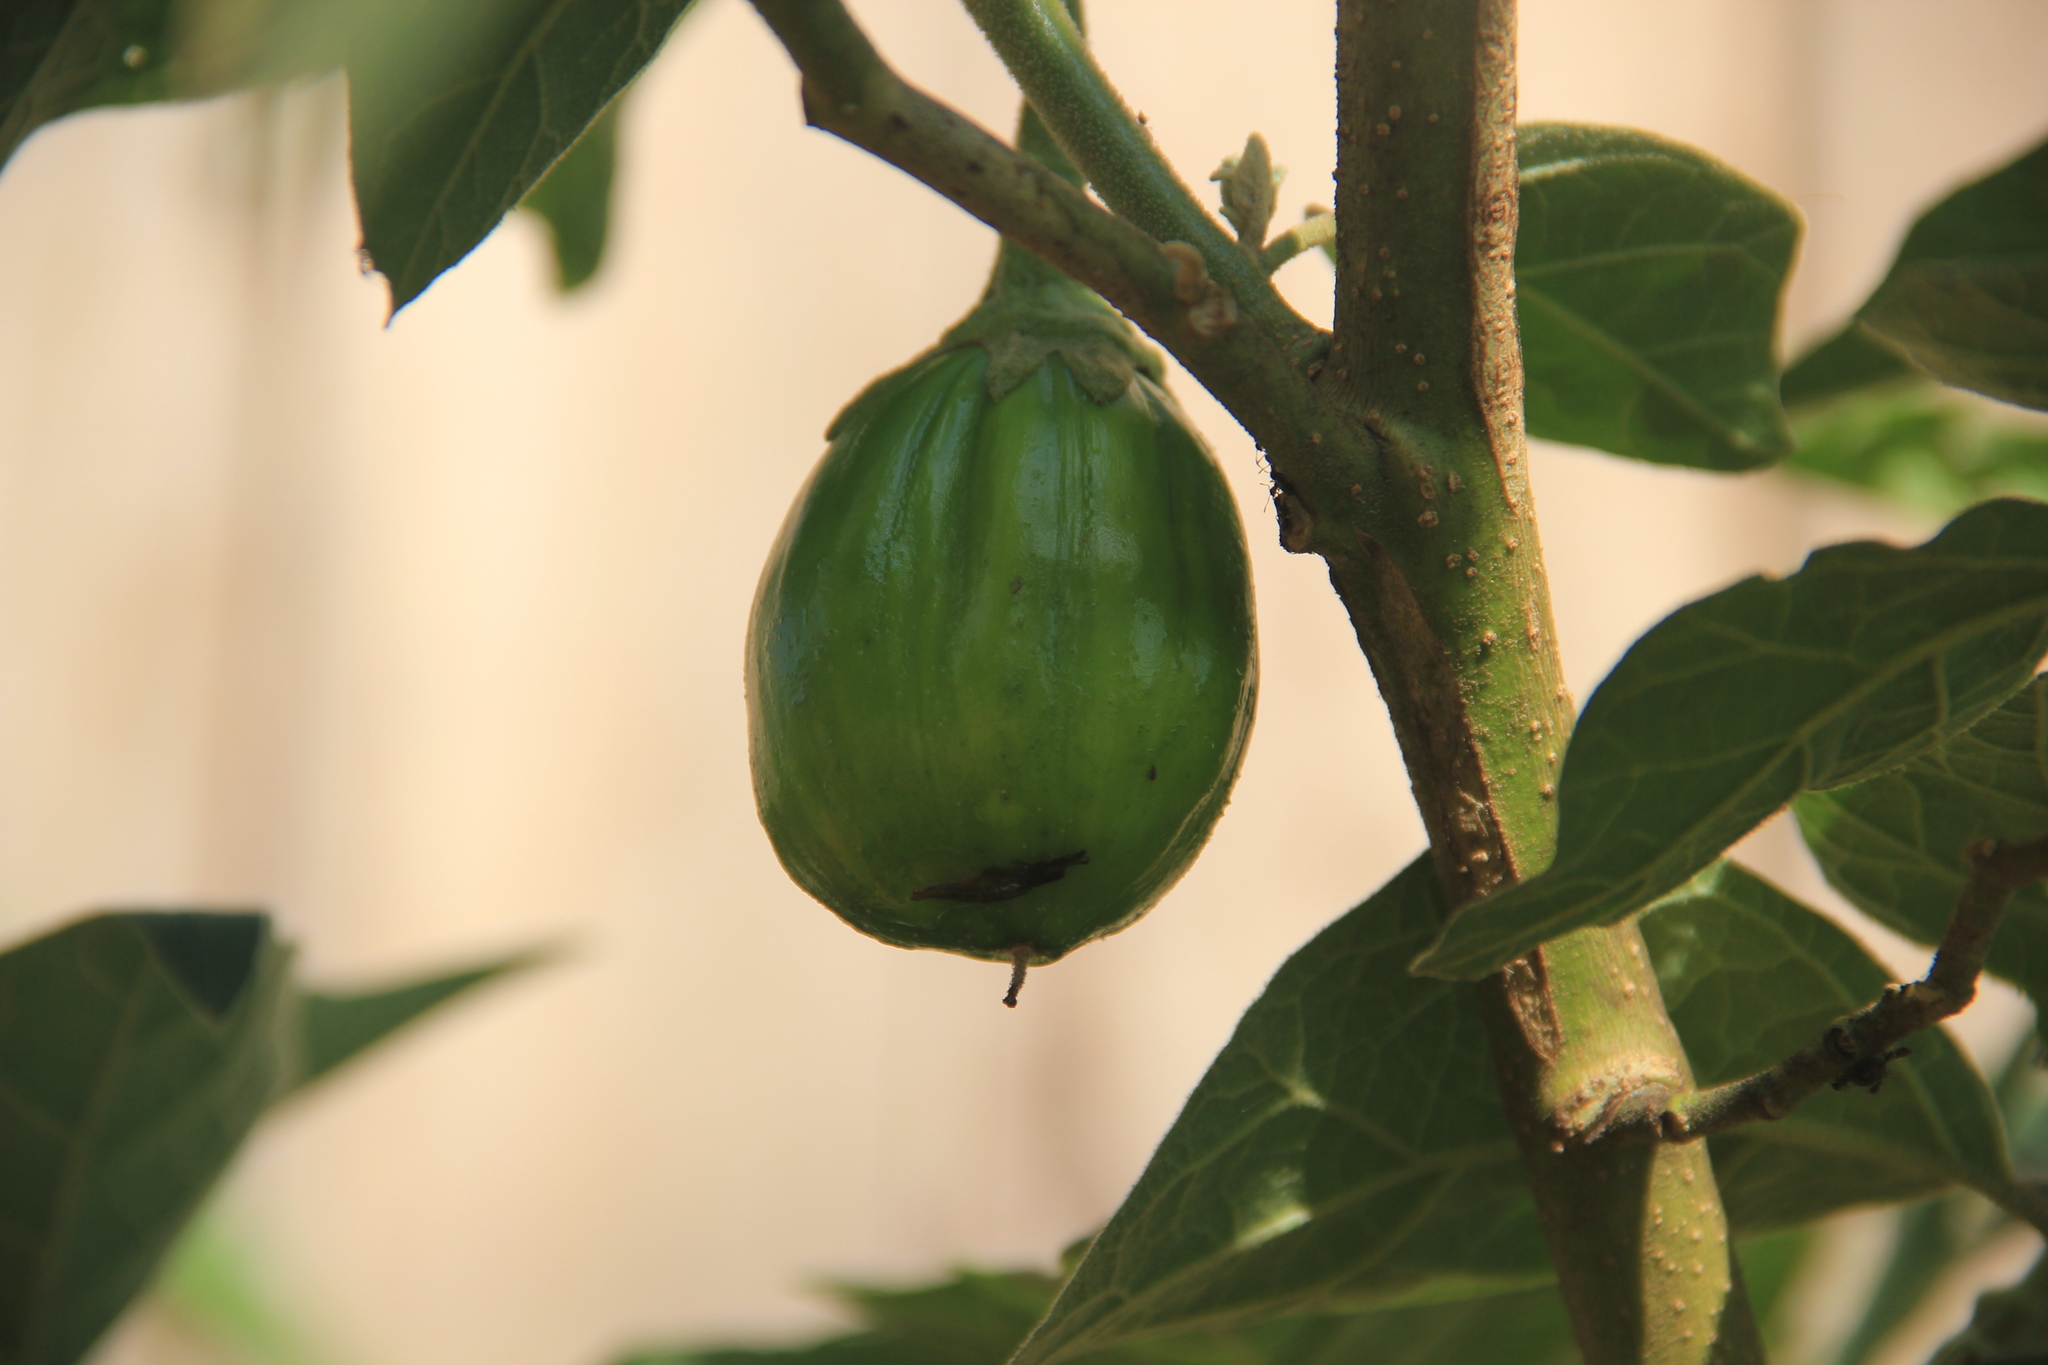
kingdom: Plantae
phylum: Tracheophyta
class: Magnoliopsida
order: Solanales
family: Solanaceae
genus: Solanum
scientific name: Solanum aethiopicum
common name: Gilo
